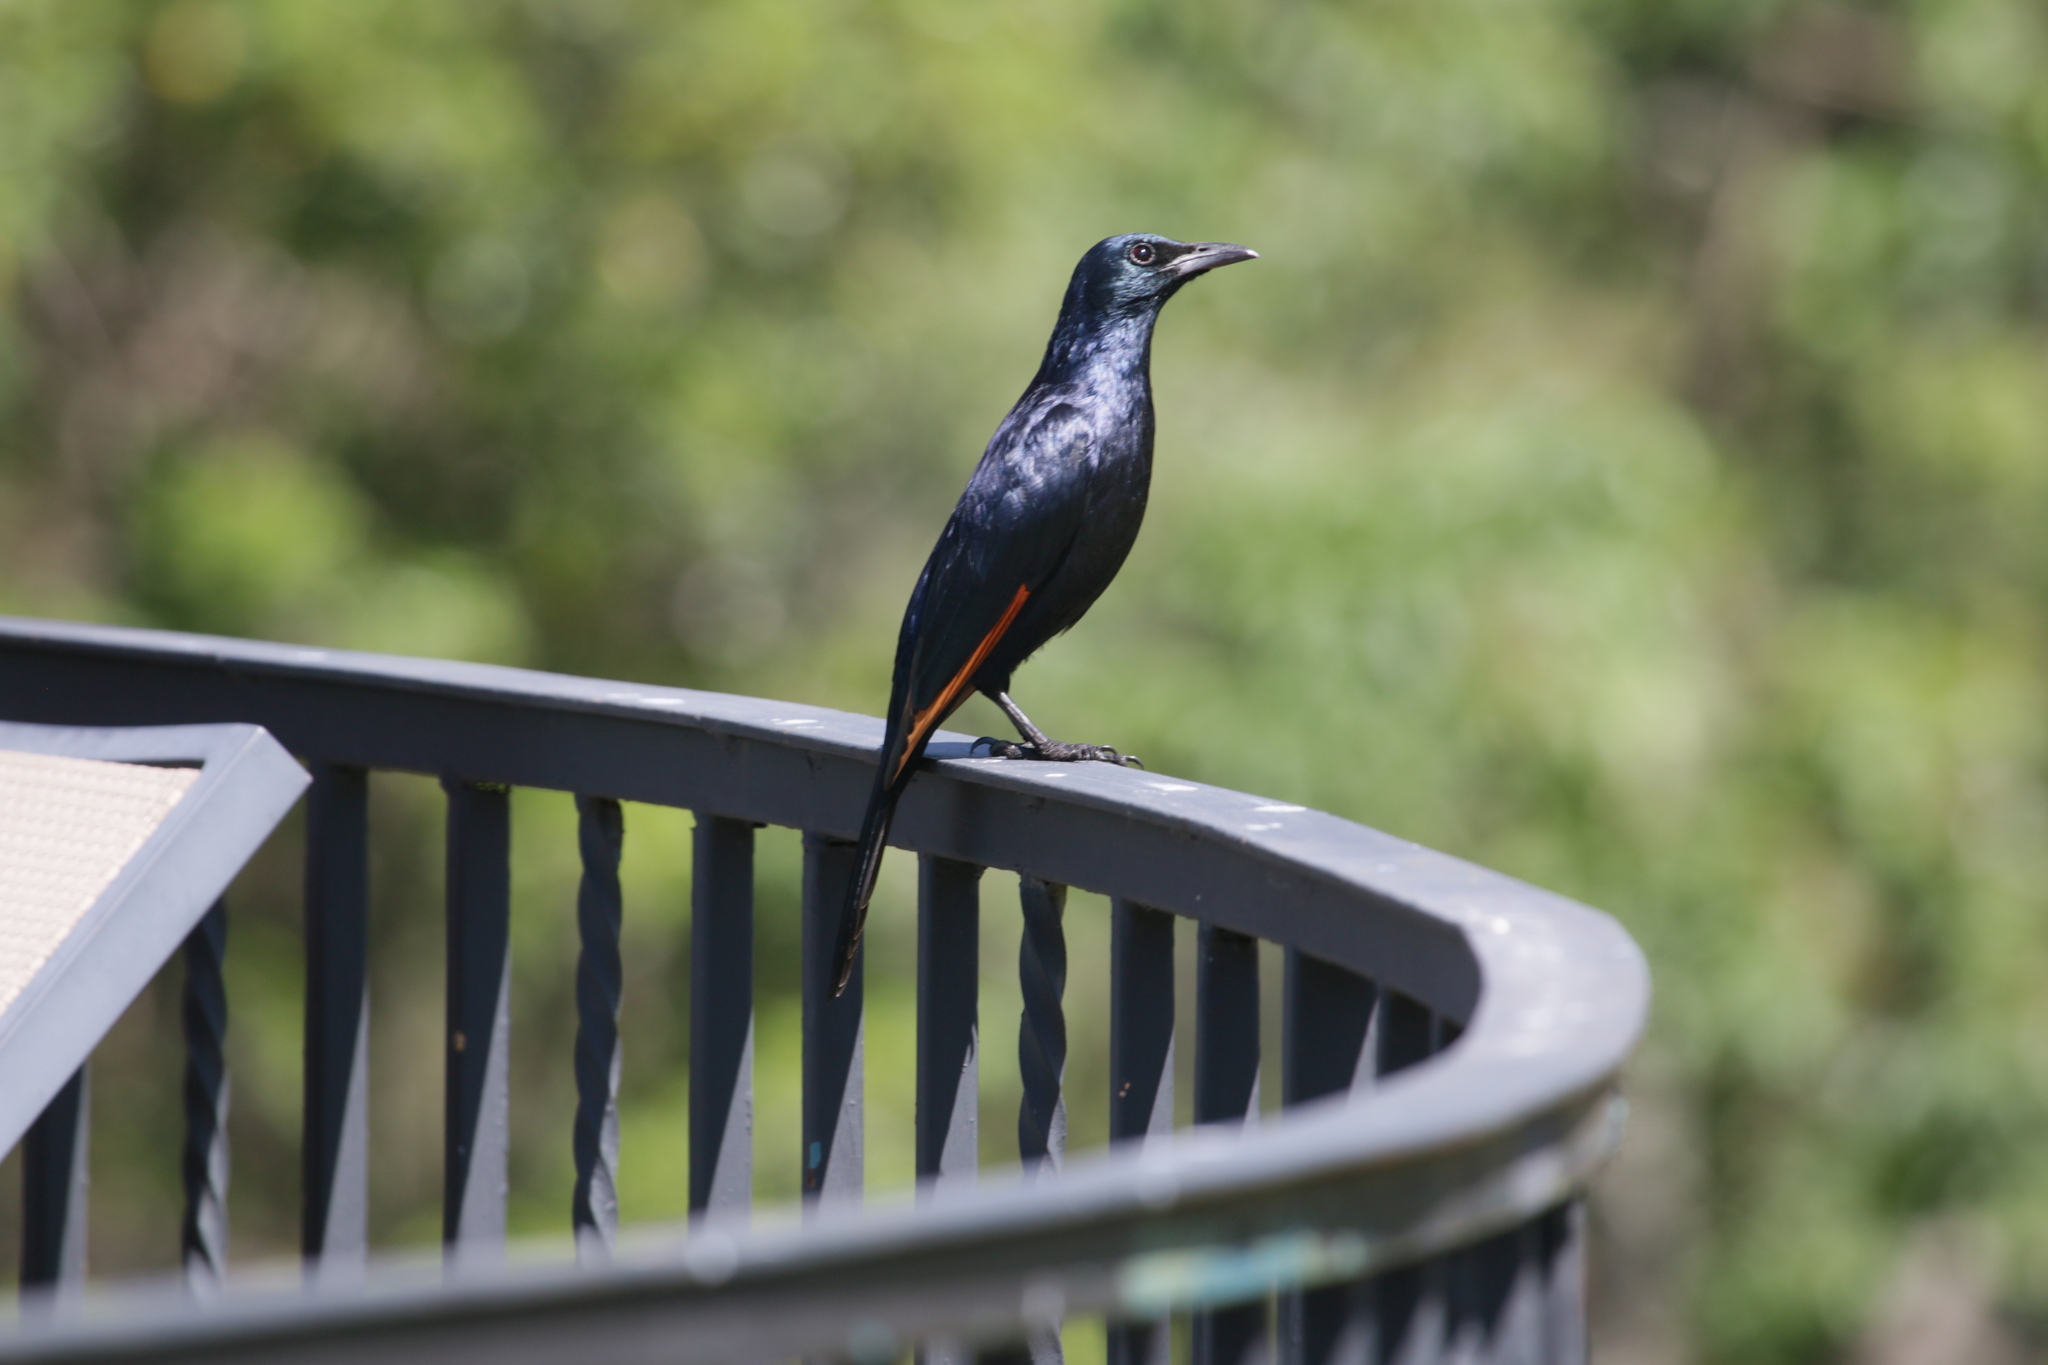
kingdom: Animalia
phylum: Chordata
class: Aves
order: Passeriformes
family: Sturnidae
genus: Onychognathus
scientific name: Onychognathus morio
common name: Red-winged starling
